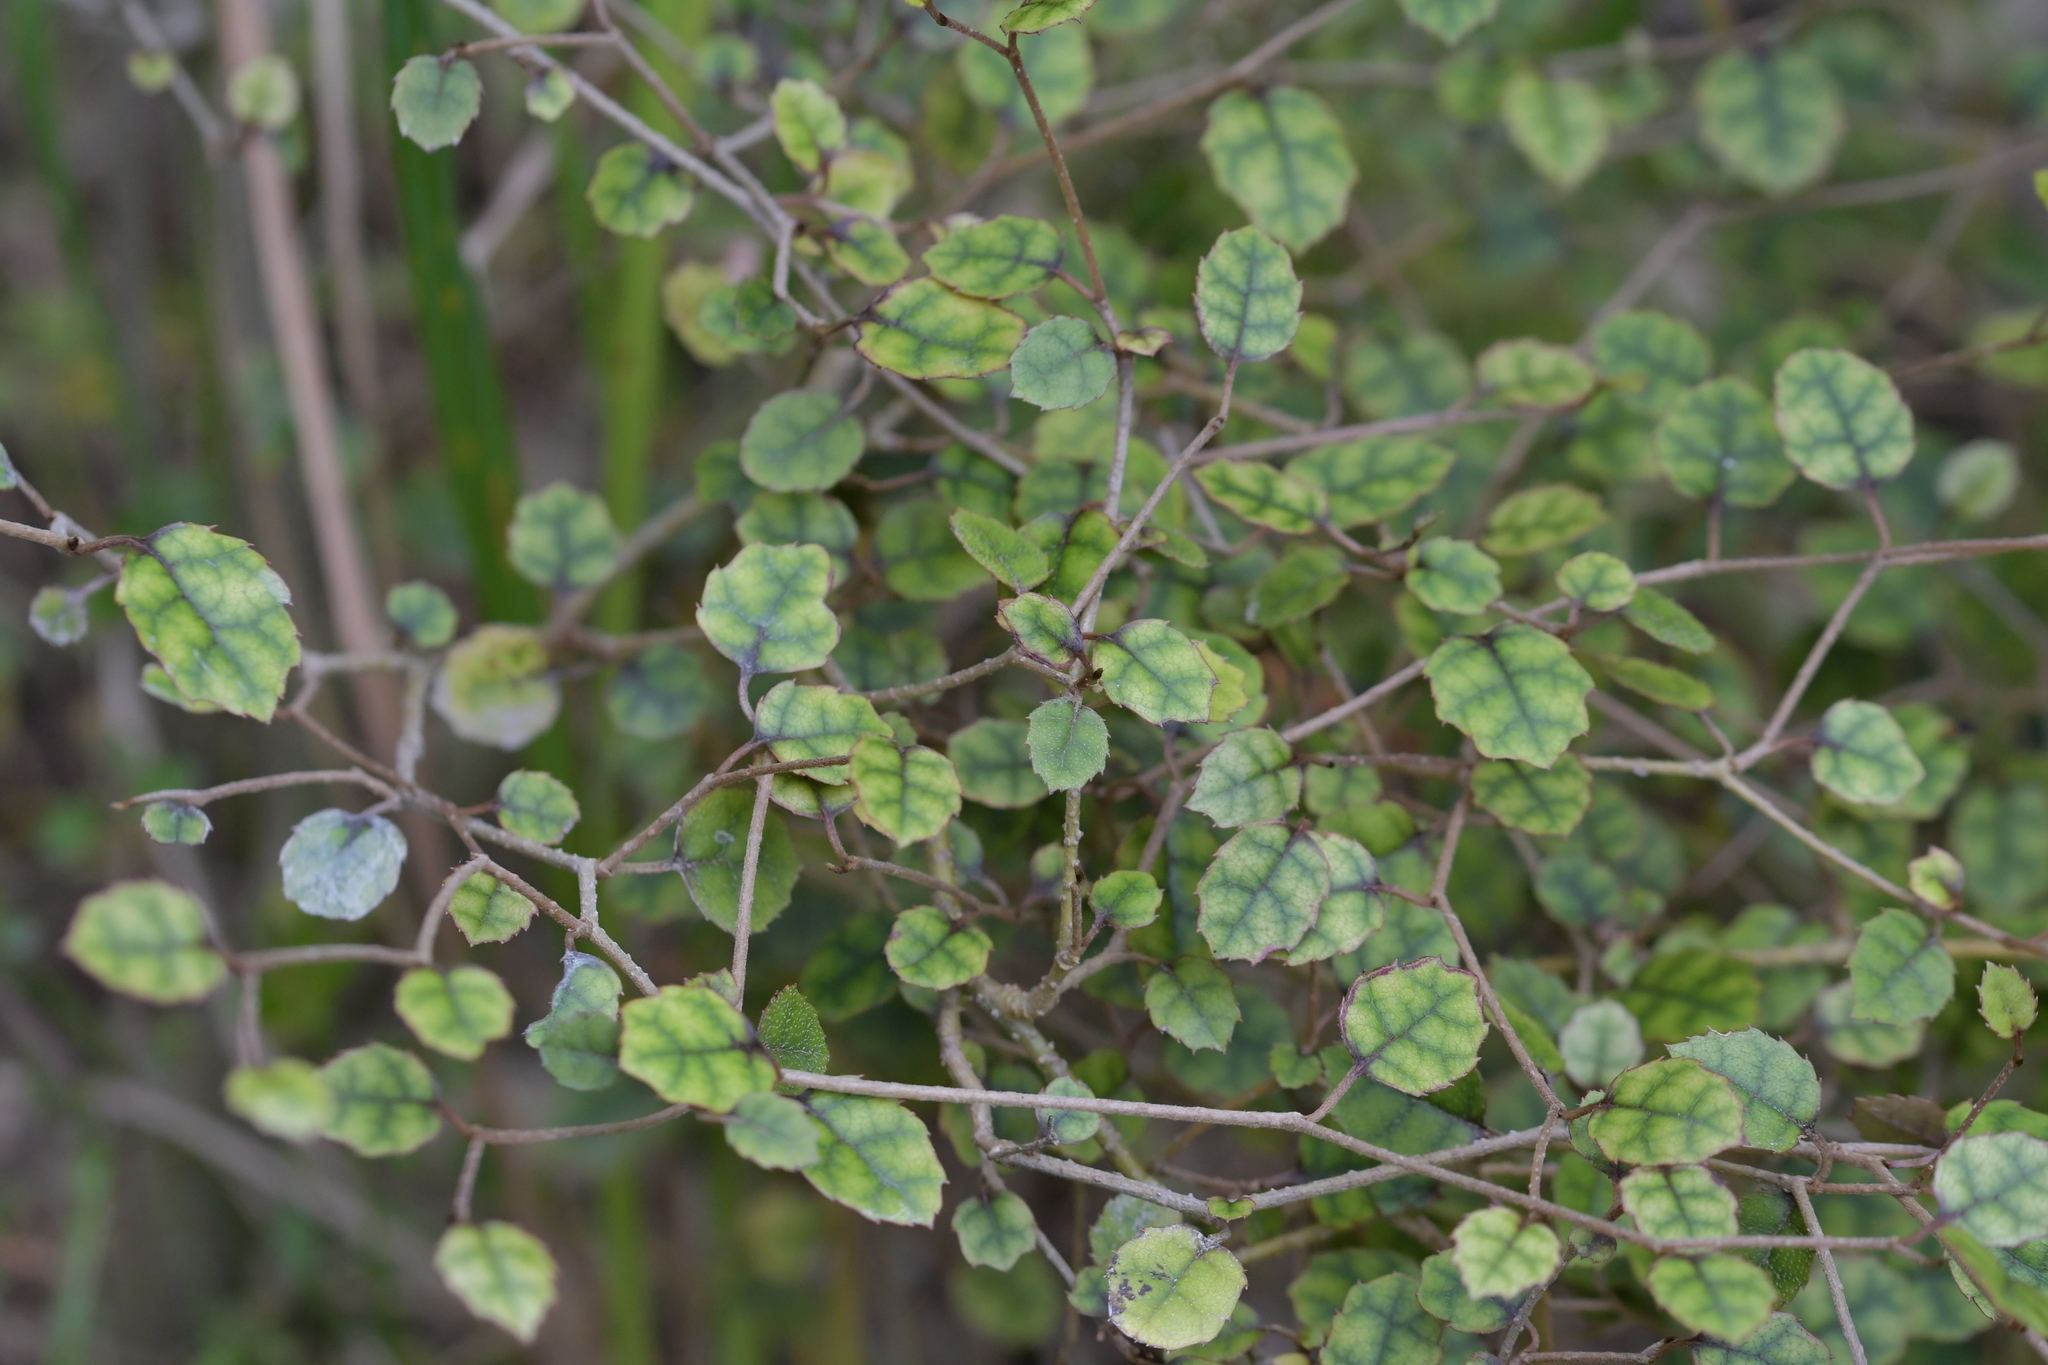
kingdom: Plantae
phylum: Tracheophyta
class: Magnoliopsida
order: Asterales
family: Rousseaceae
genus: Carpodetus
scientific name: Carpodetus serratus
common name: White mapau
